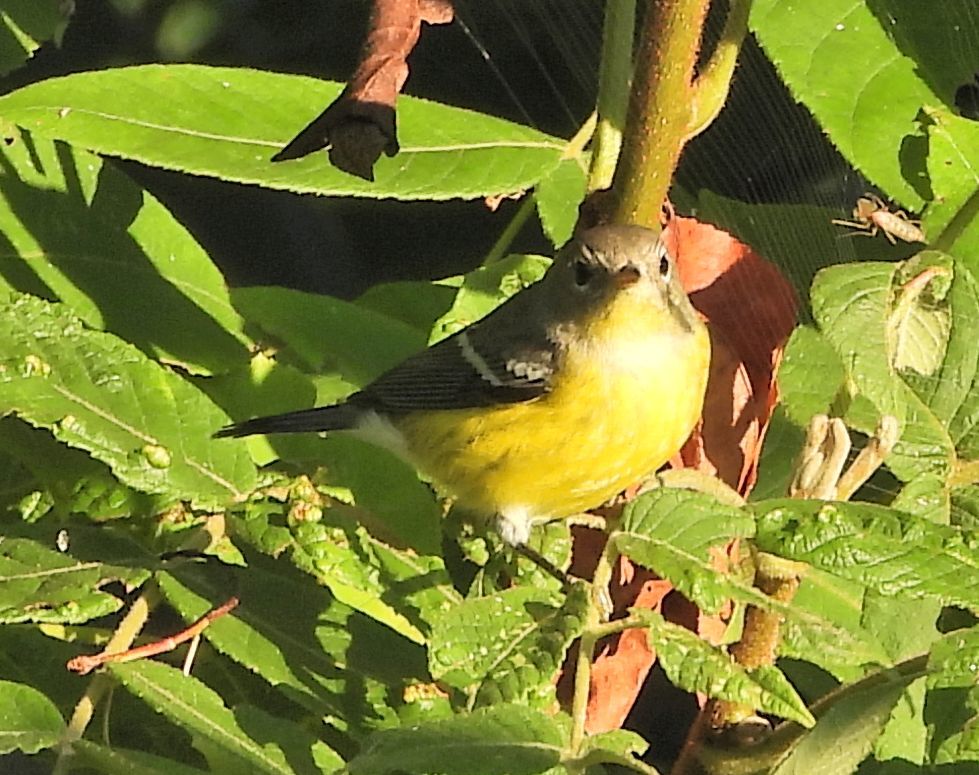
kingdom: Animalia
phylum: Chordata
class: Aves
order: Passeriformes
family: Parulidae
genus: Setophaga
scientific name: Setophaga magnolia
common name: Magnolia warbler
